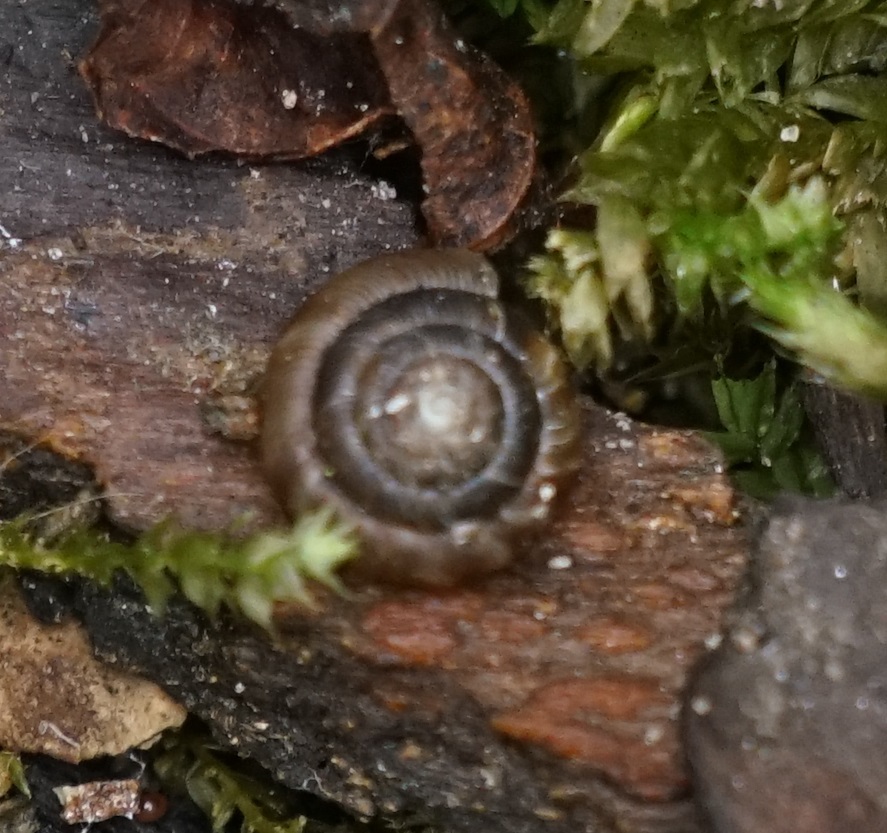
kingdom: Animalia
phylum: Mollusca
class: Gastropoda
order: Stylommatophora
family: Discidae
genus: Discus
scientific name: Discus rotundatus
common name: Rounded snail
